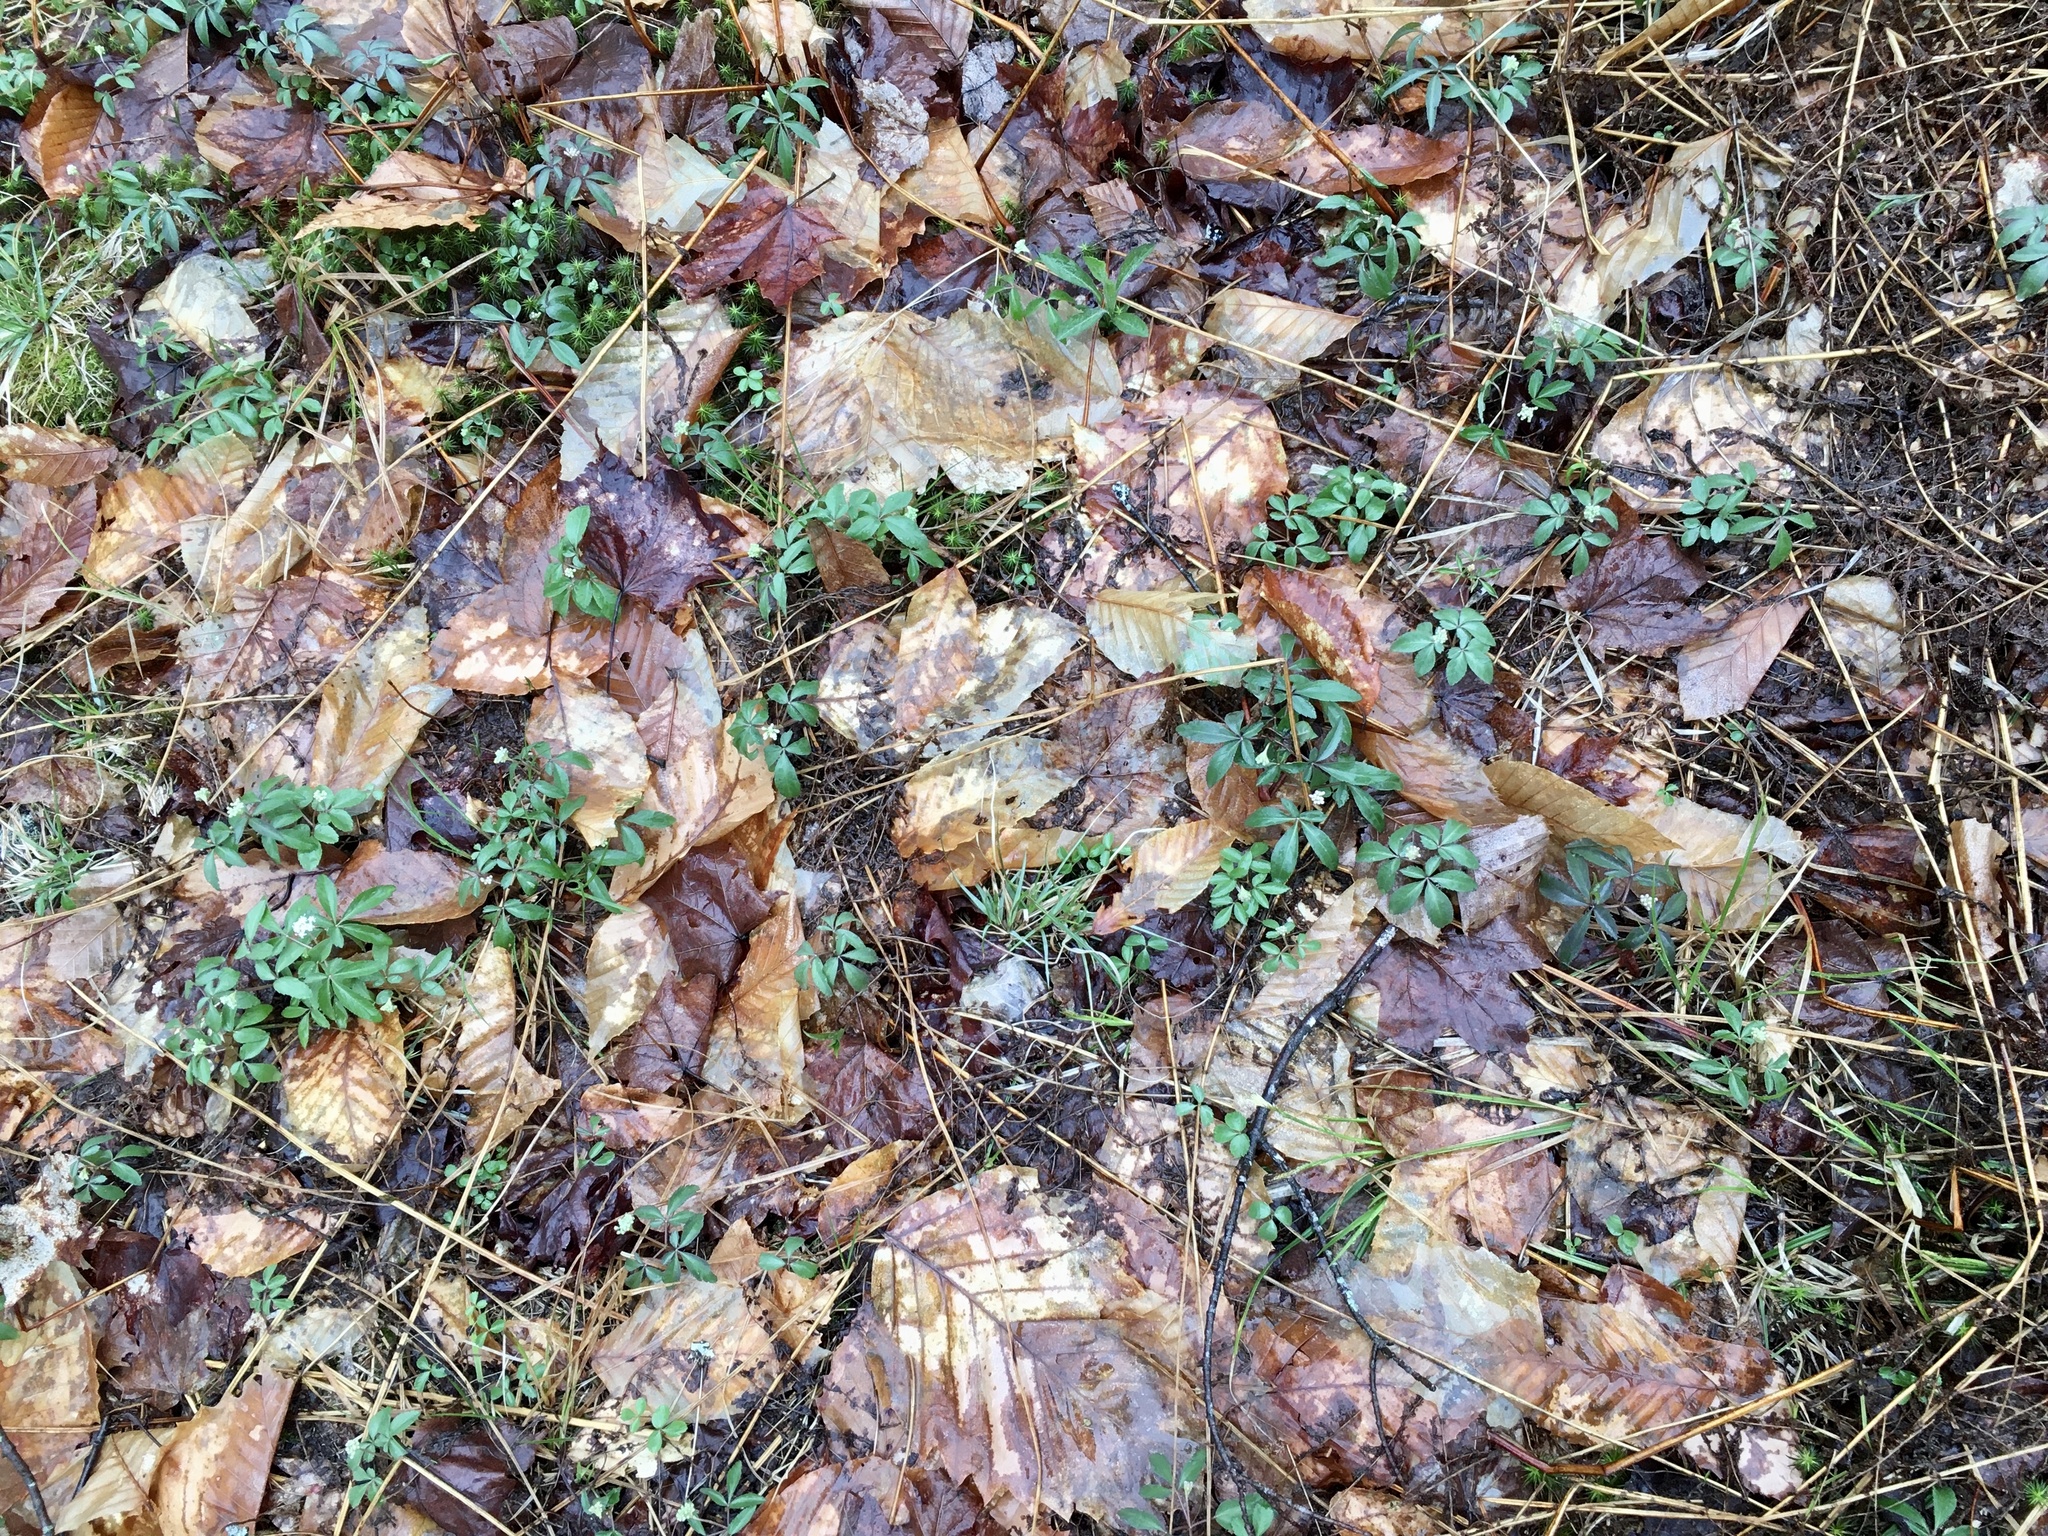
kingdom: Plantae
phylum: Tracheophyta
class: Magnoliopsida
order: Apiales
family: Araliaceae
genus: Panax
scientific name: Panax trifolius
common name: Dwarf ginseng
